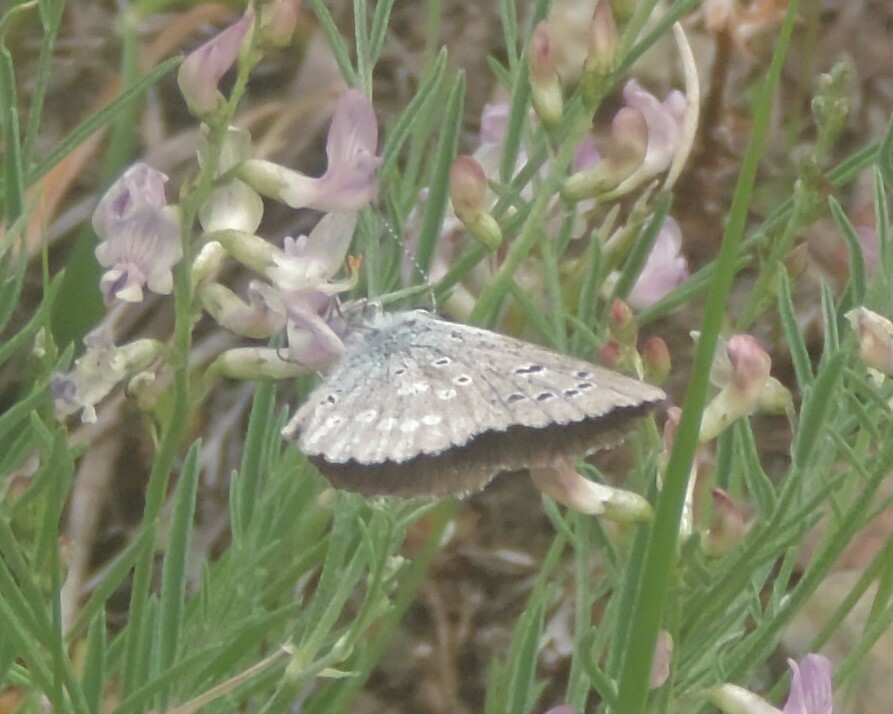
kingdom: Animalia
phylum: Arthropoda
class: Insecta
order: Lepidoptera
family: Lycaenidae
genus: Icaricia
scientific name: Icaricia icarioides
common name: Boisduval's blue
